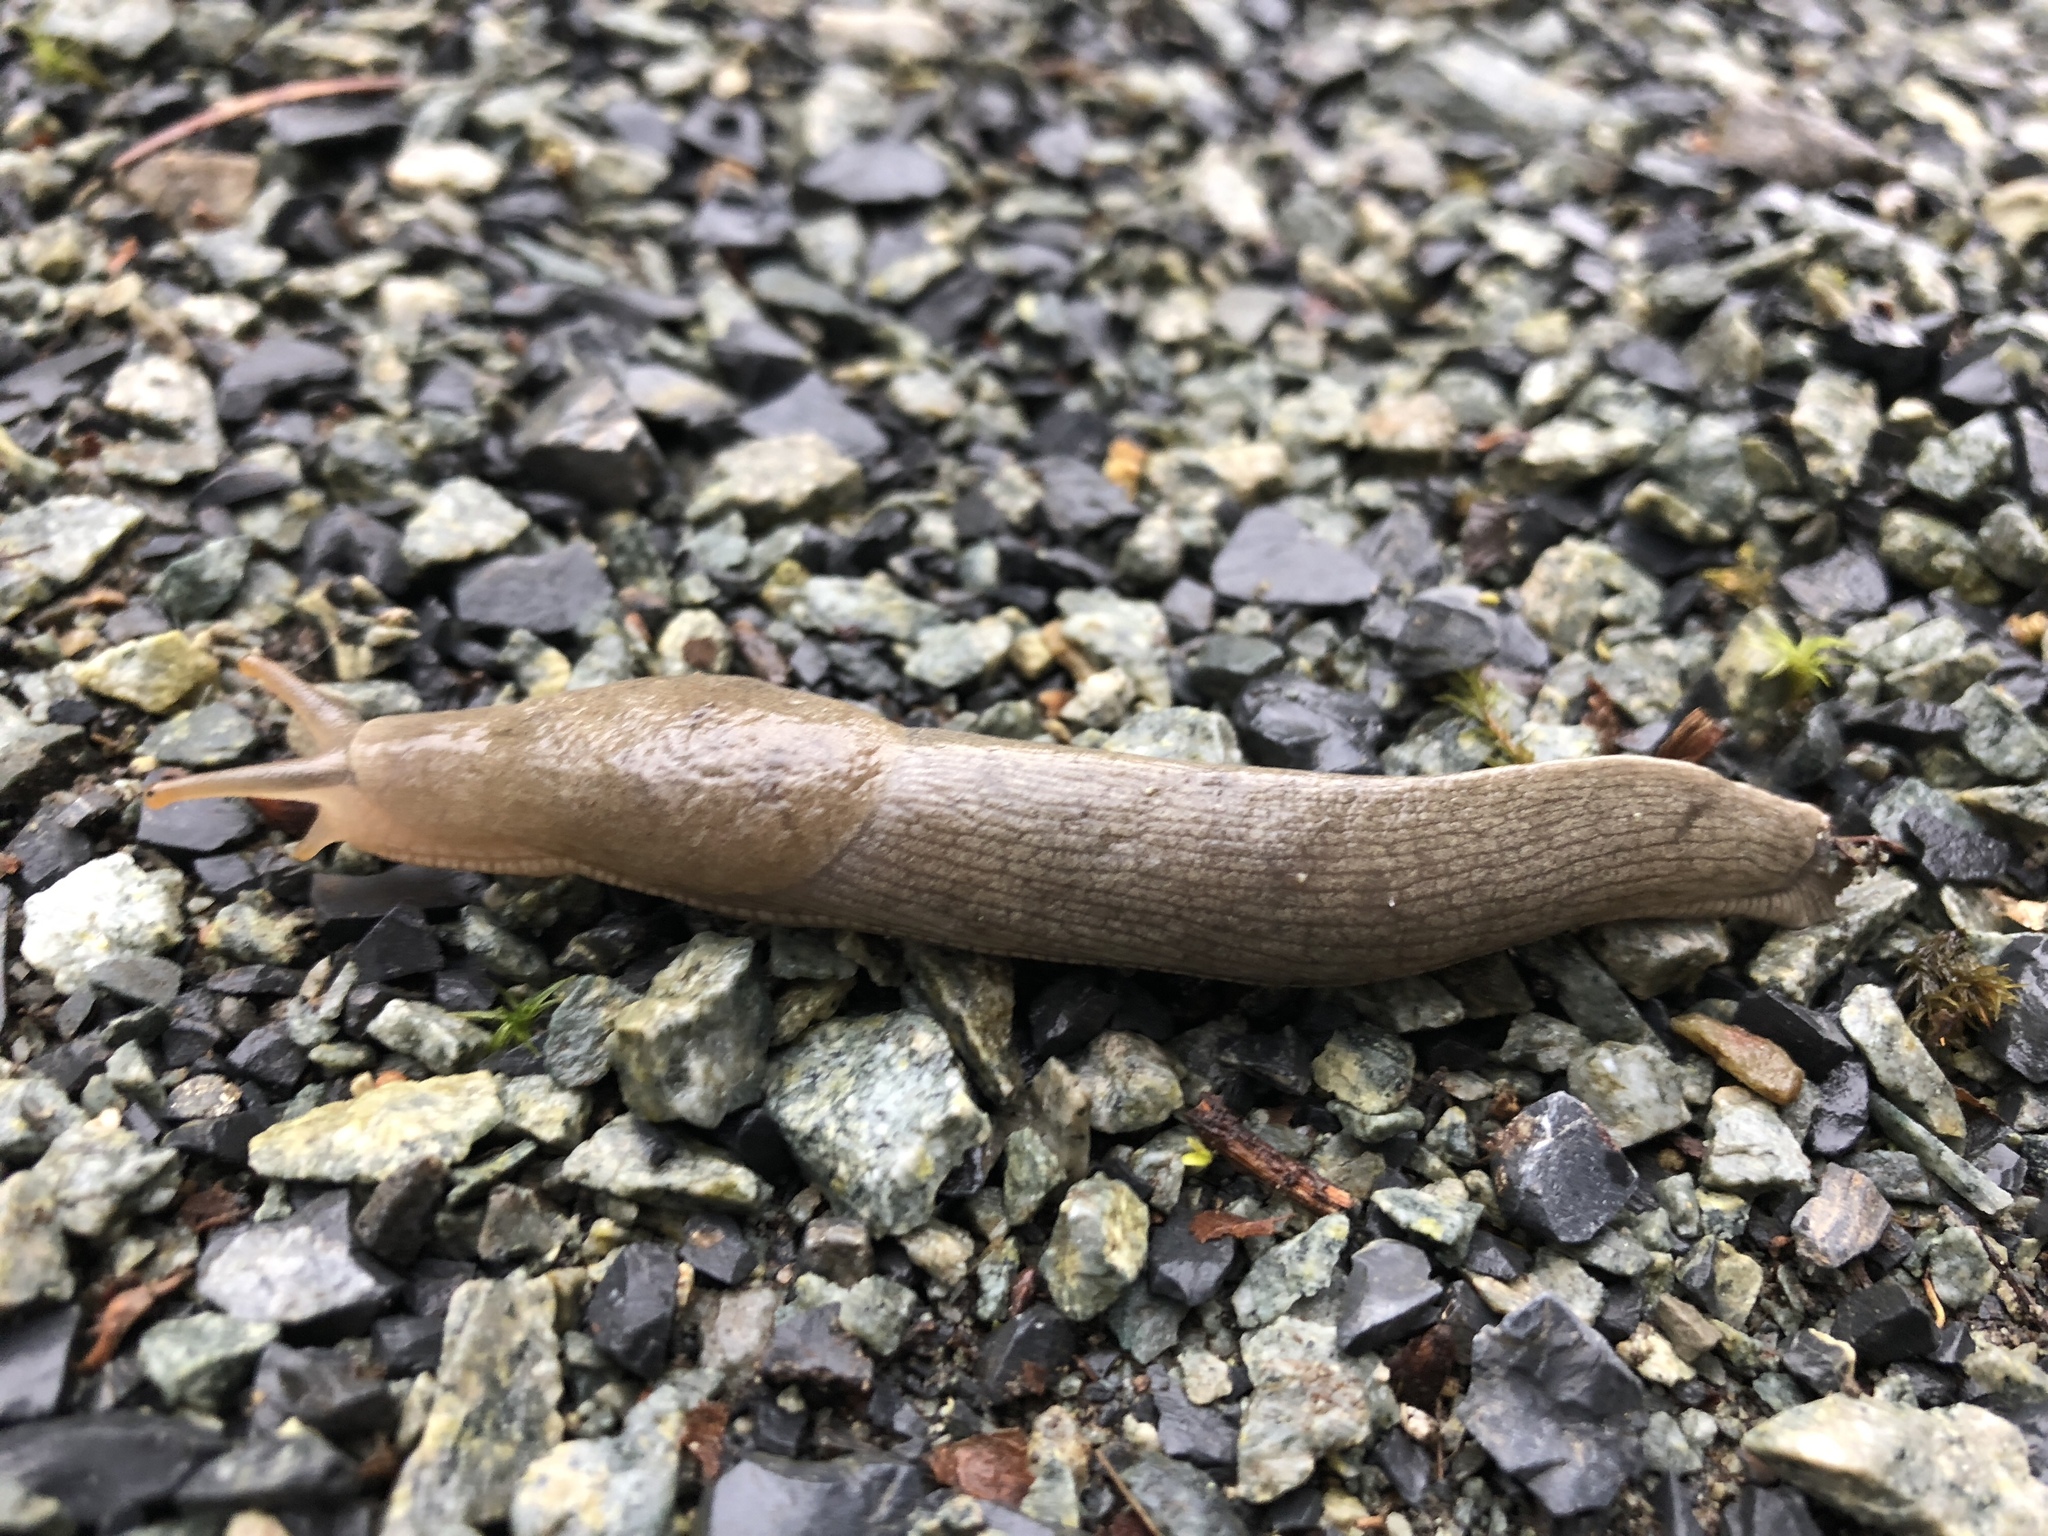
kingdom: Animalia
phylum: Mollusca
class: Gastropoda
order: Stylommatophora
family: Ariolimacidae
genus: Ariolimax
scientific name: Ariolimax columbianus
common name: Pacific banana slug
